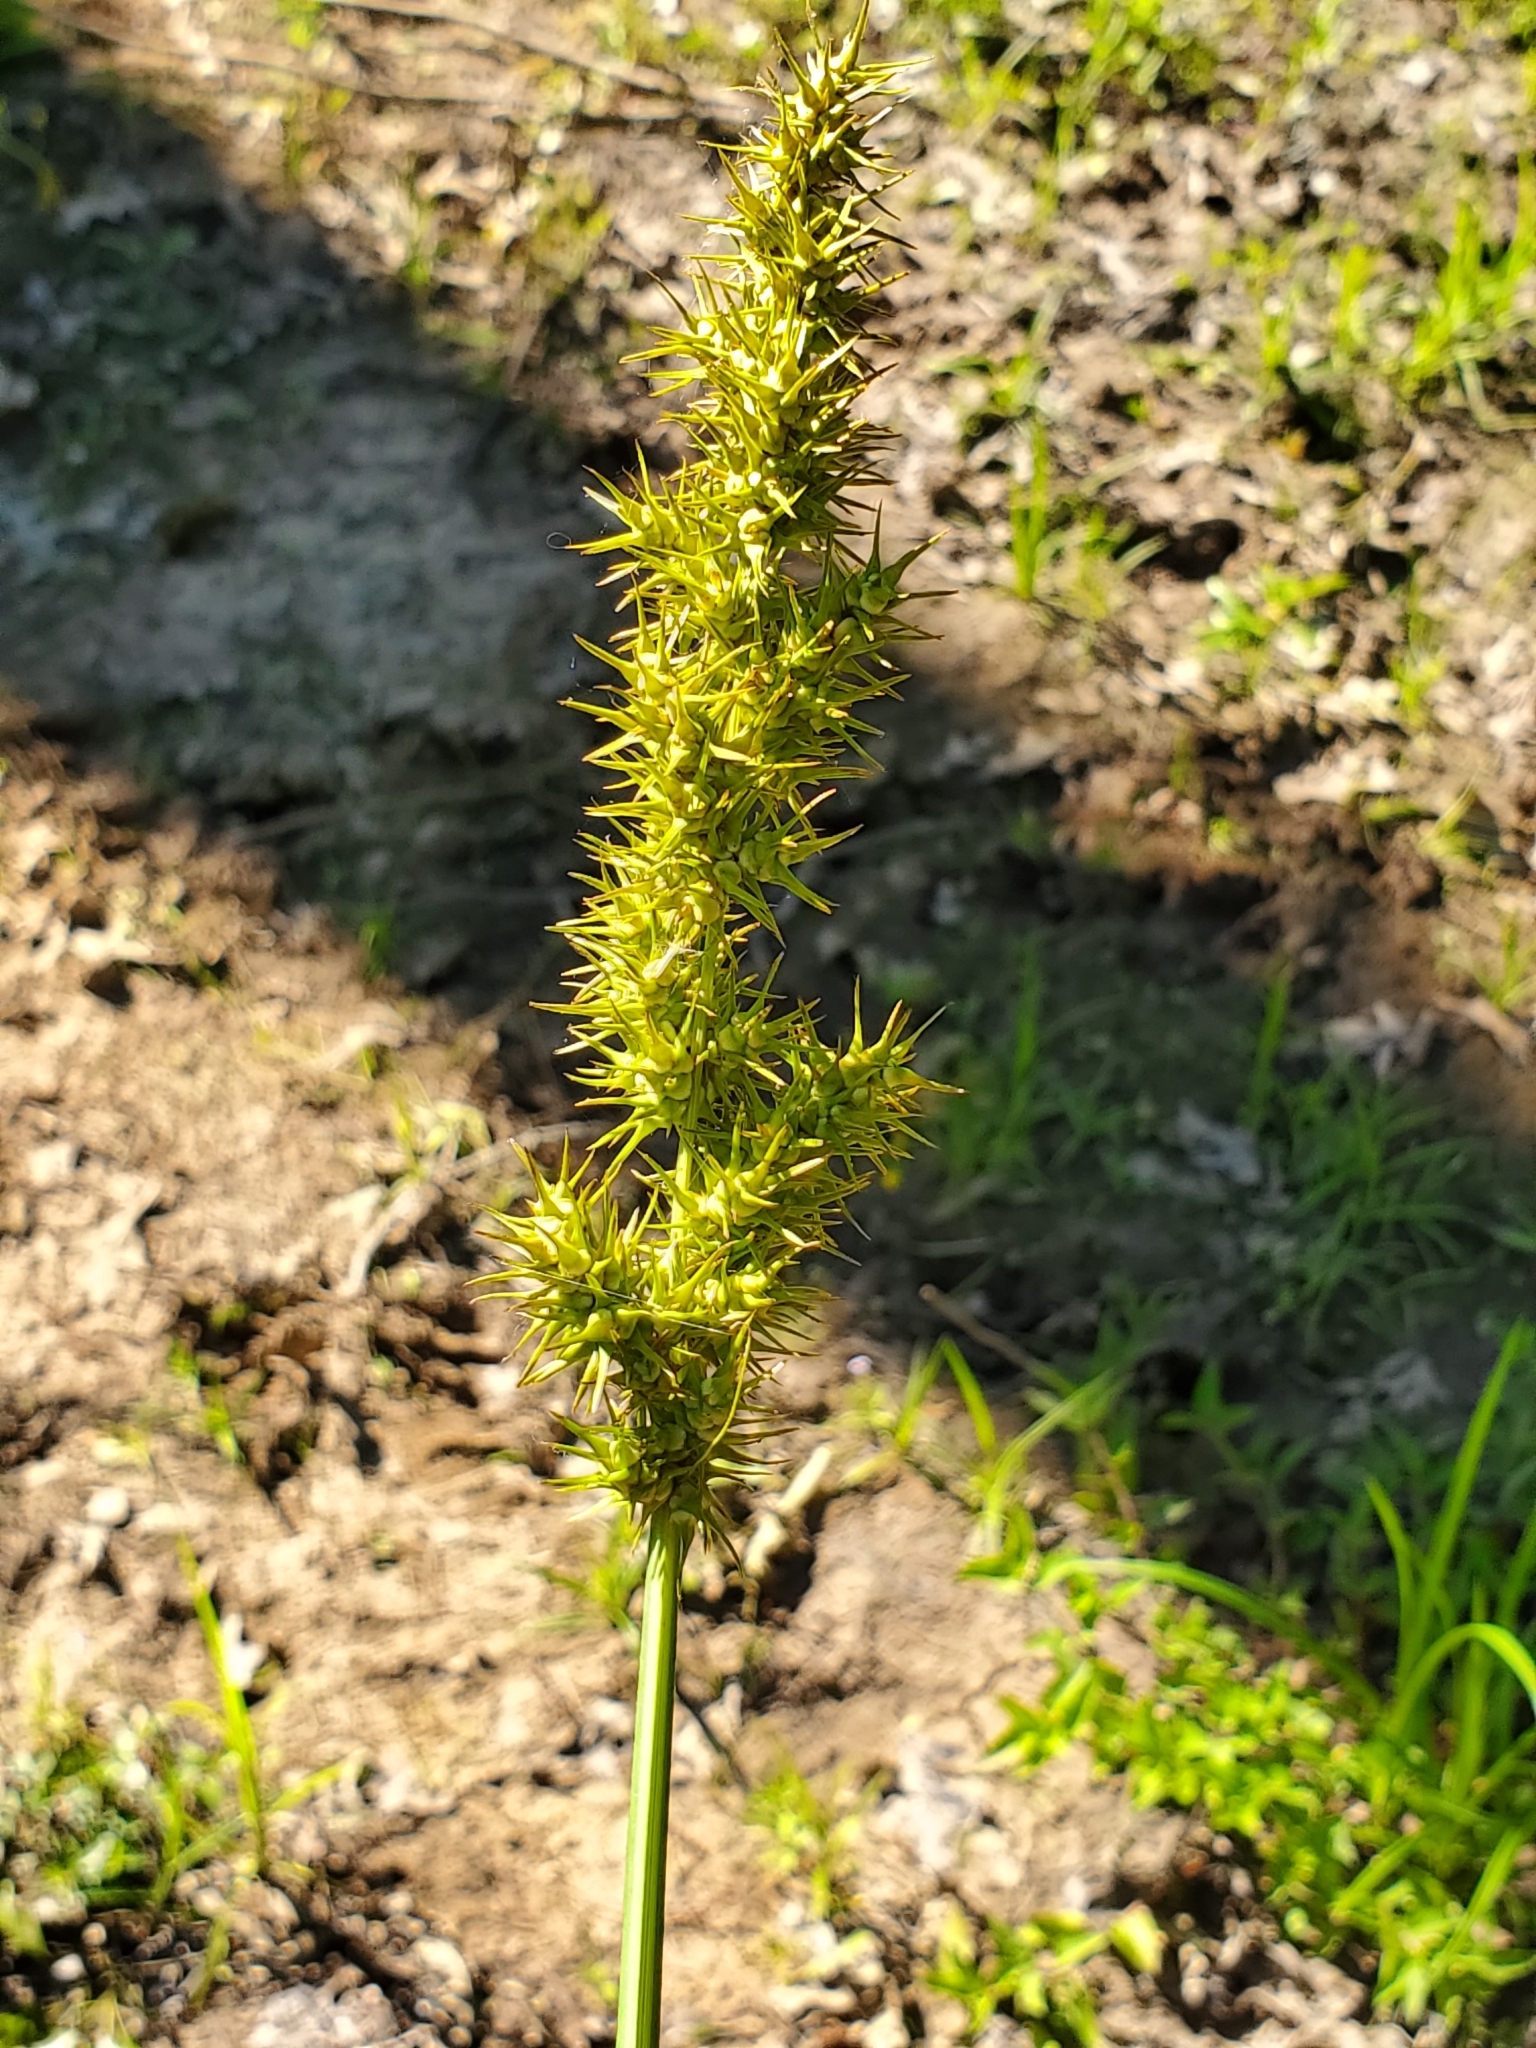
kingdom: Plantae
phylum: Tracheophyta
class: Liliopsida
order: Poales
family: Cyperaceae
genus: Carex
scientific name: Carex crus-corvi
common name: Crow-spur sedge
